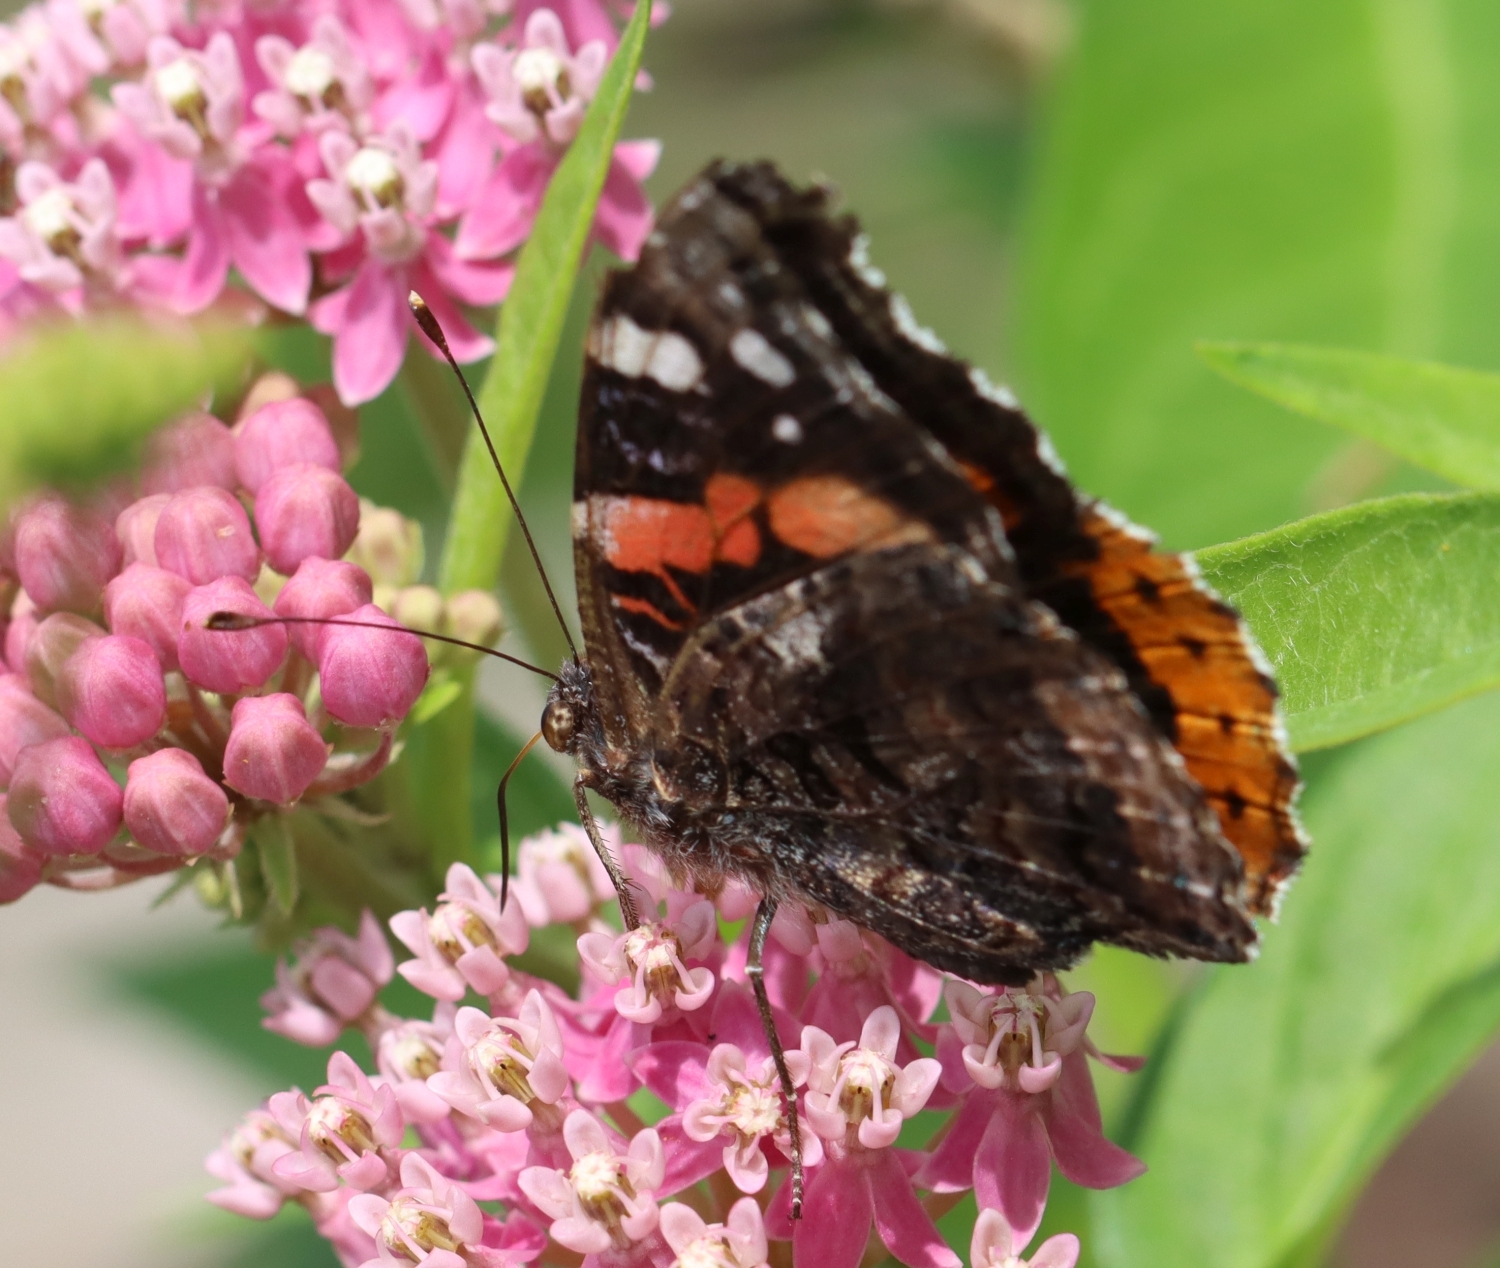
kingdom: Animalia
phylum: Arthropoda
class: Insecta
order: Lepidoptera
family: Nymphalidae
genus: Vanessa
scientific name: Vanessa atalanta
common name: Red admiral
